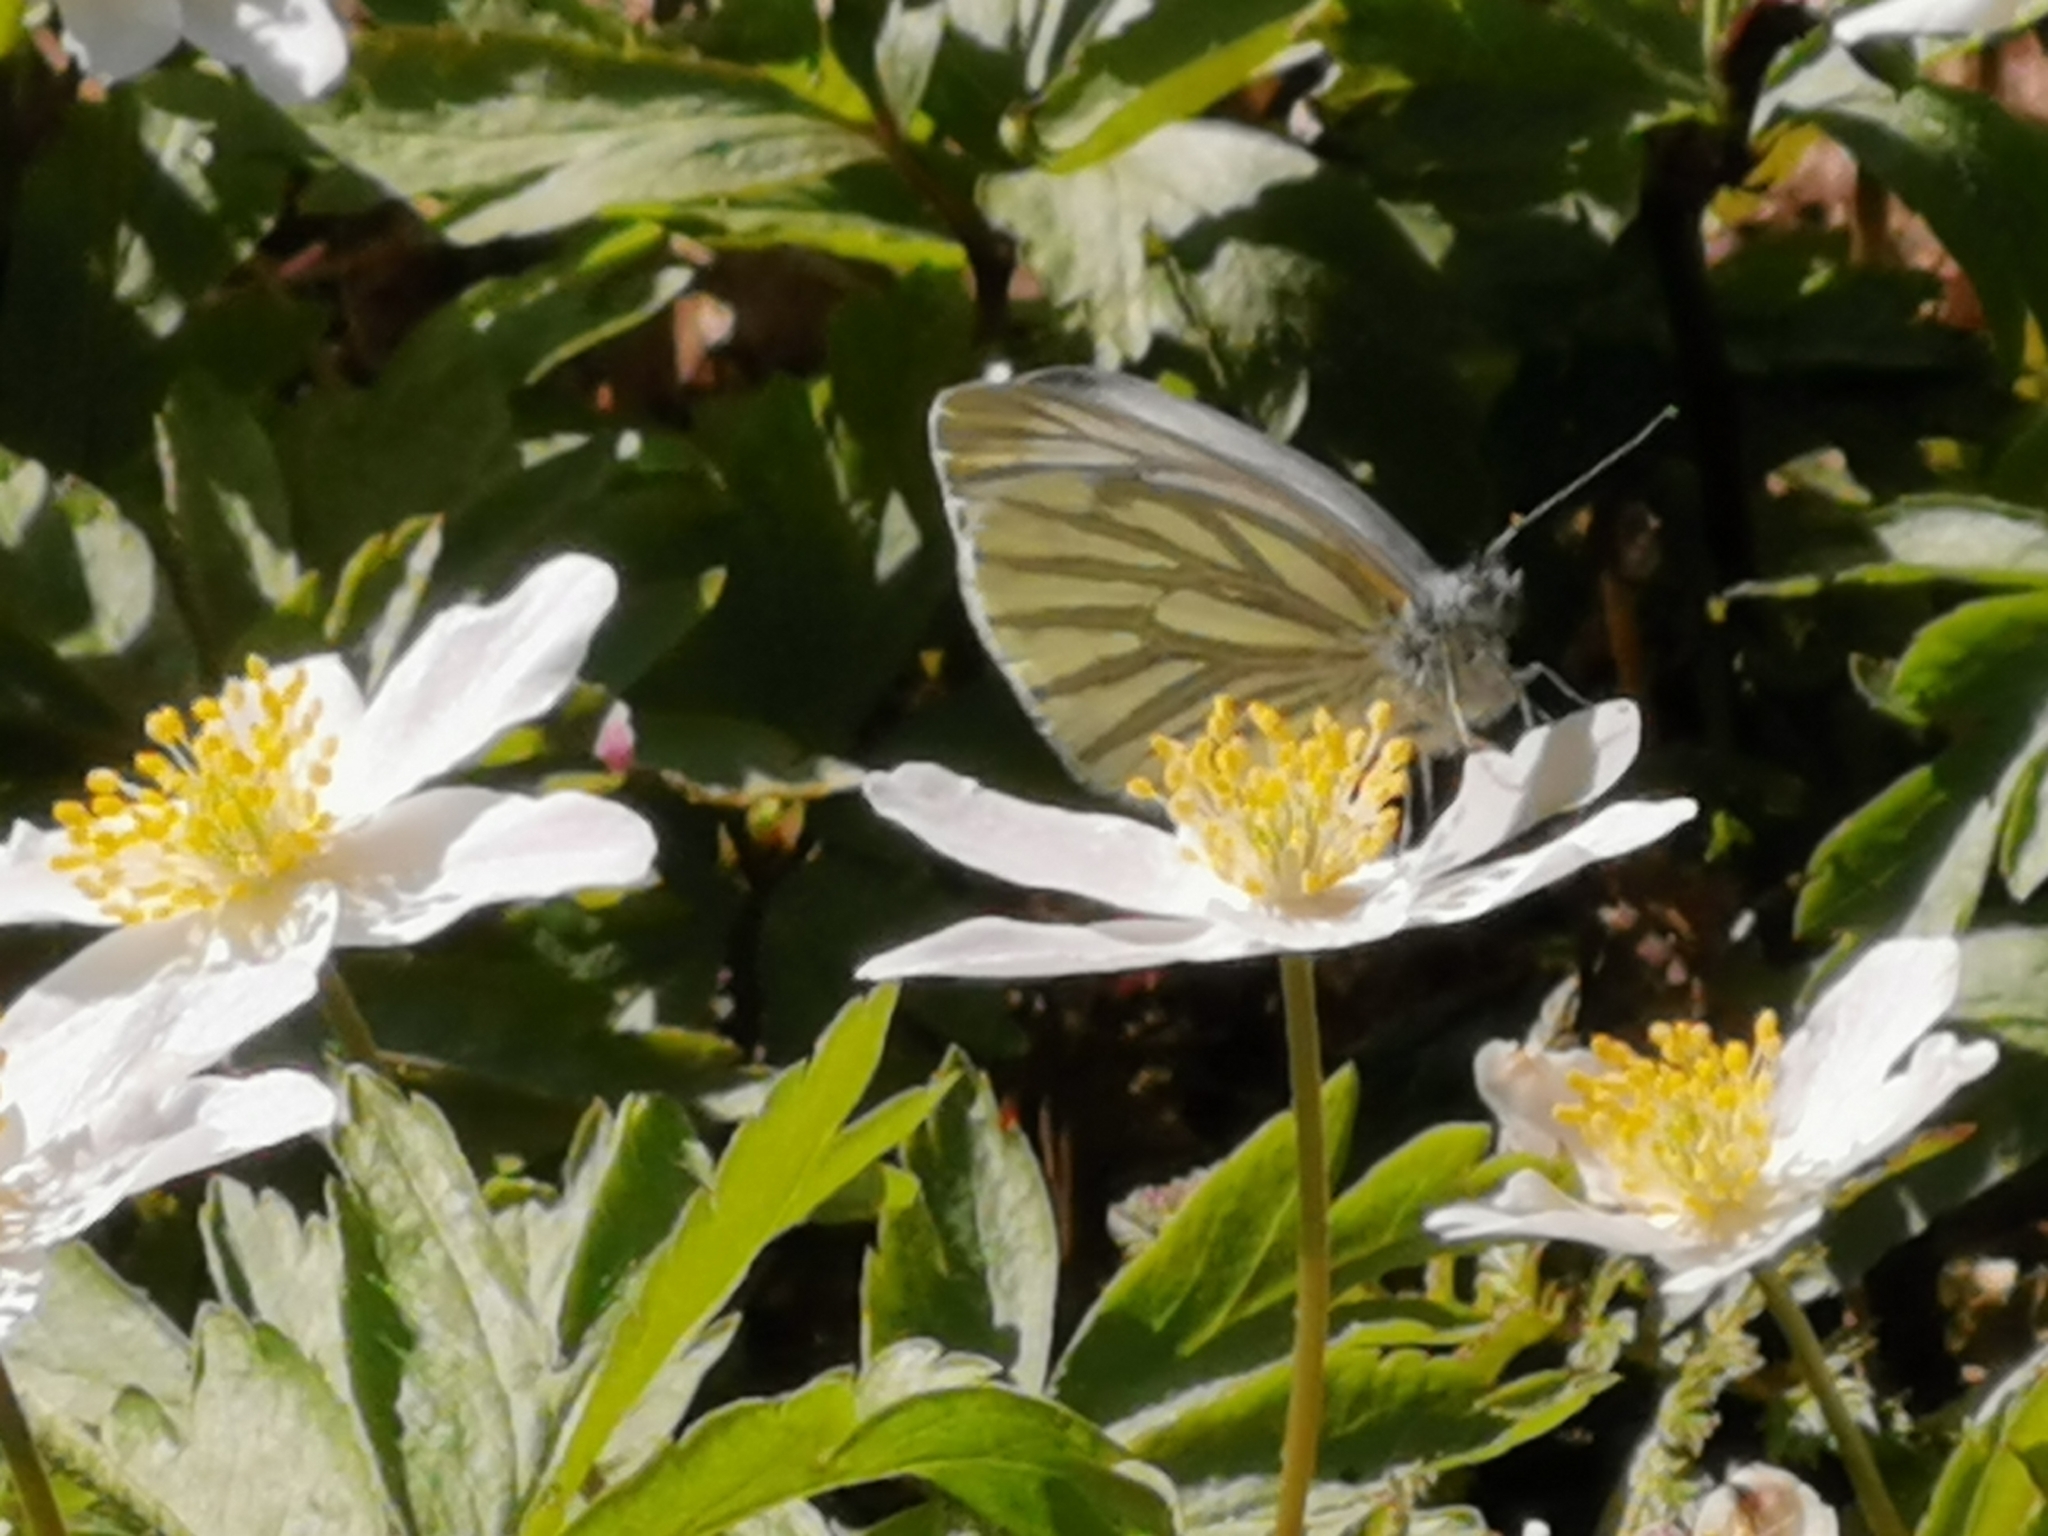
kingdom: Animalia
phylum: Arthropoda
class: Insecta
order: Lepidoptera
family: Pieridae
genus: Pieris
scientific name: Pieris napi
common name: Green-veined white
